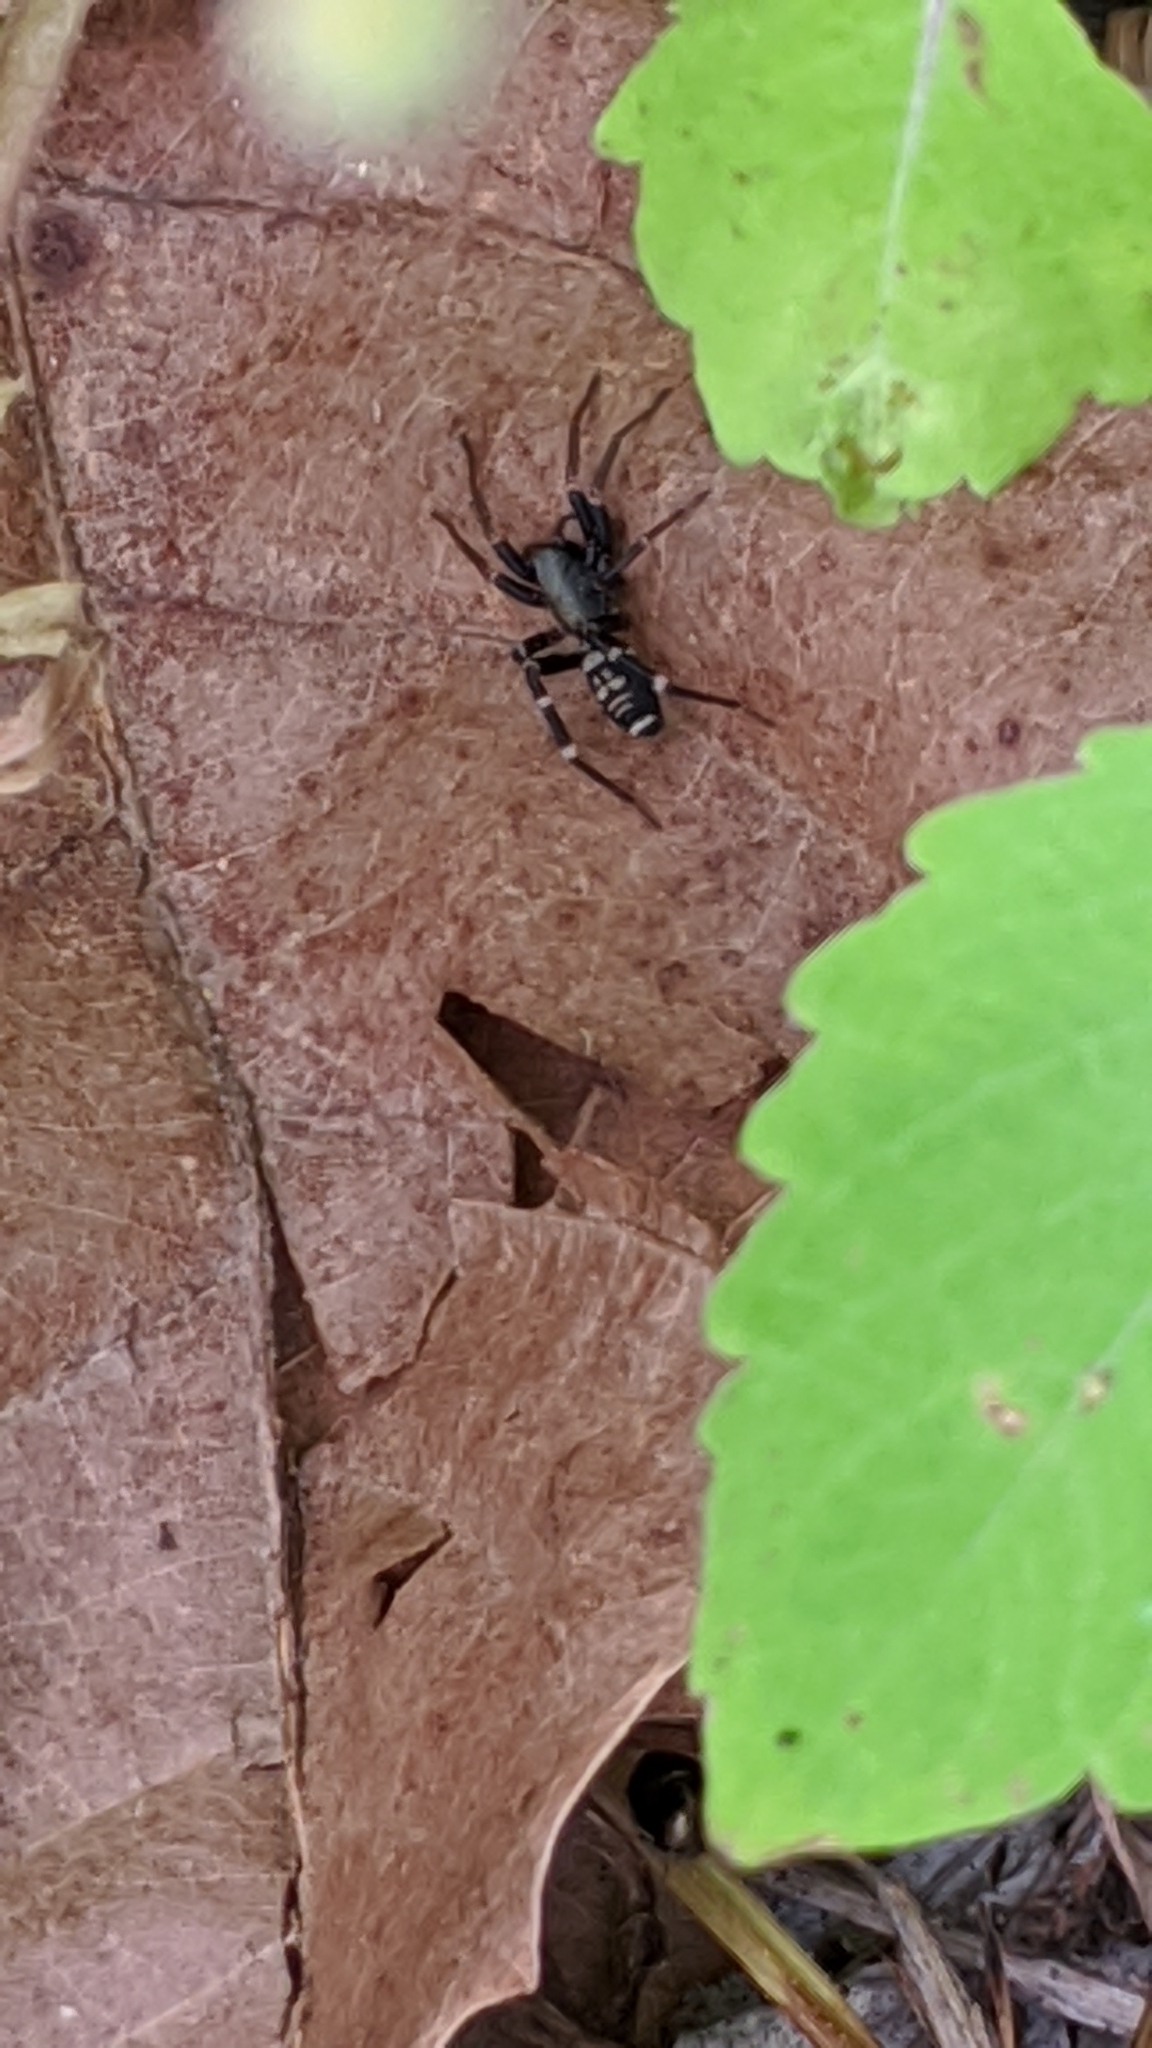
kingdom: Animalia
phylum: Arthropoda
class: Arachnida
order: Araneae
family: Corinnidae
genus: Castianeira
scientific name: Castianeira
